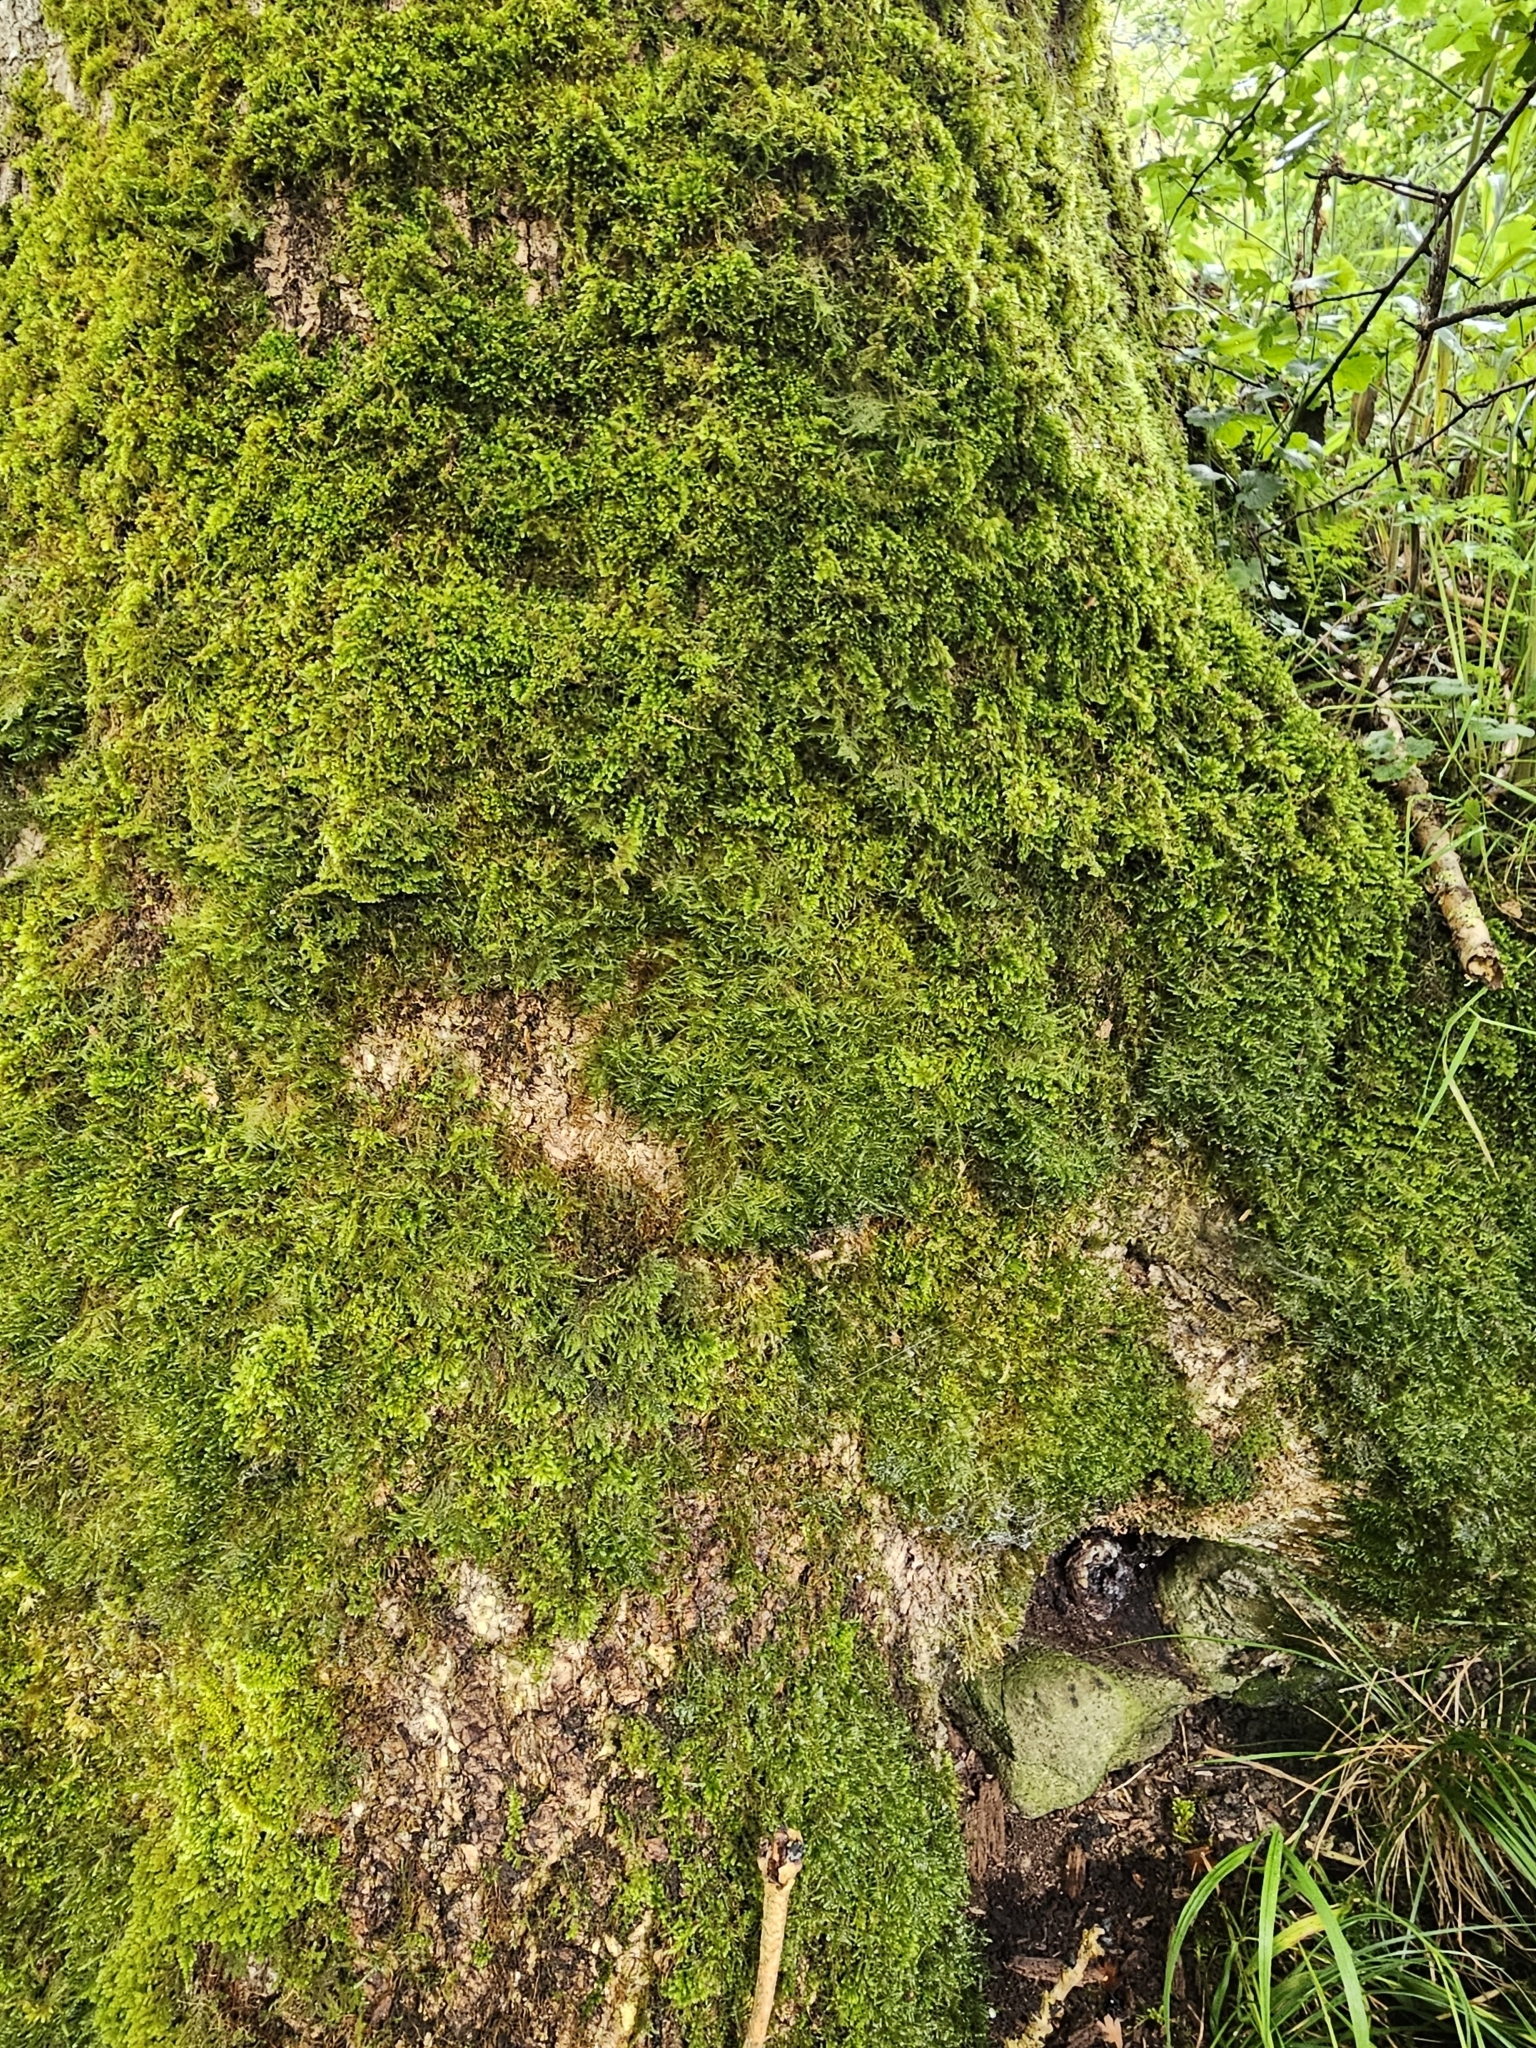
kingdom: Plantae
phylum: Bryophyta
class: Bryopsida
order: Hypnales
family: Neckeraceae
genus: Alleniella
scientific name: Alleniella complanata
